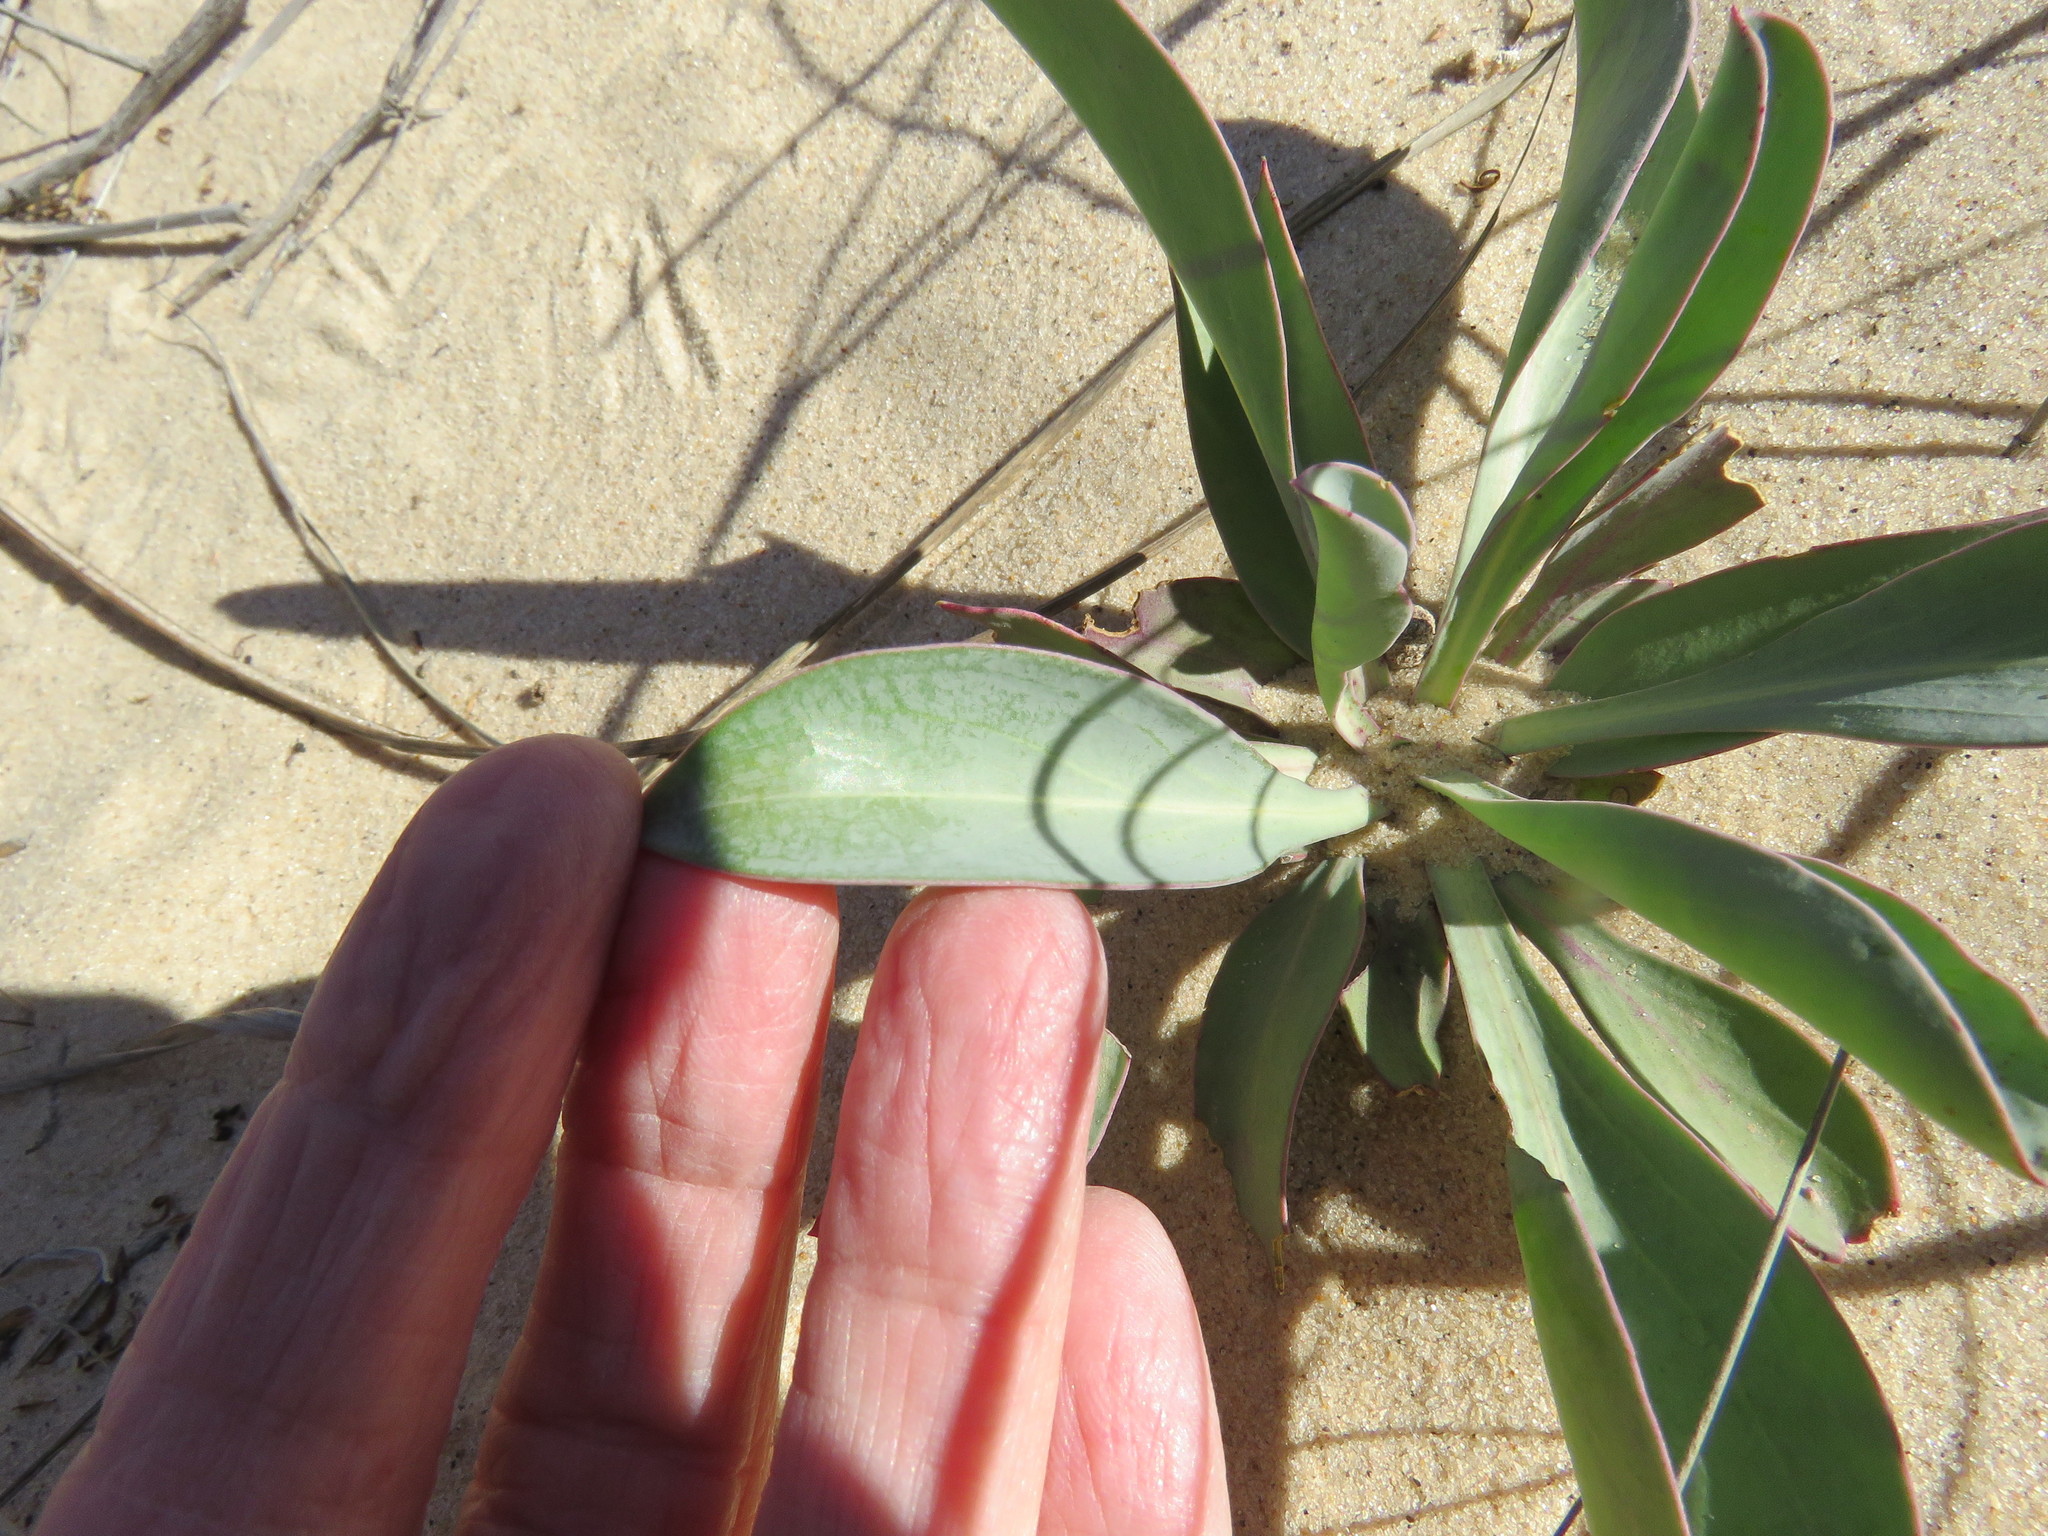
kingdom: Plantae
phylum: Tracheophyta
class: Magnoliopsida
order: Lamiales
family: Plantaginaceae
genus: Penstemon
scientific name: Penstemon buckleyi
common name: Buckley's penstemon
